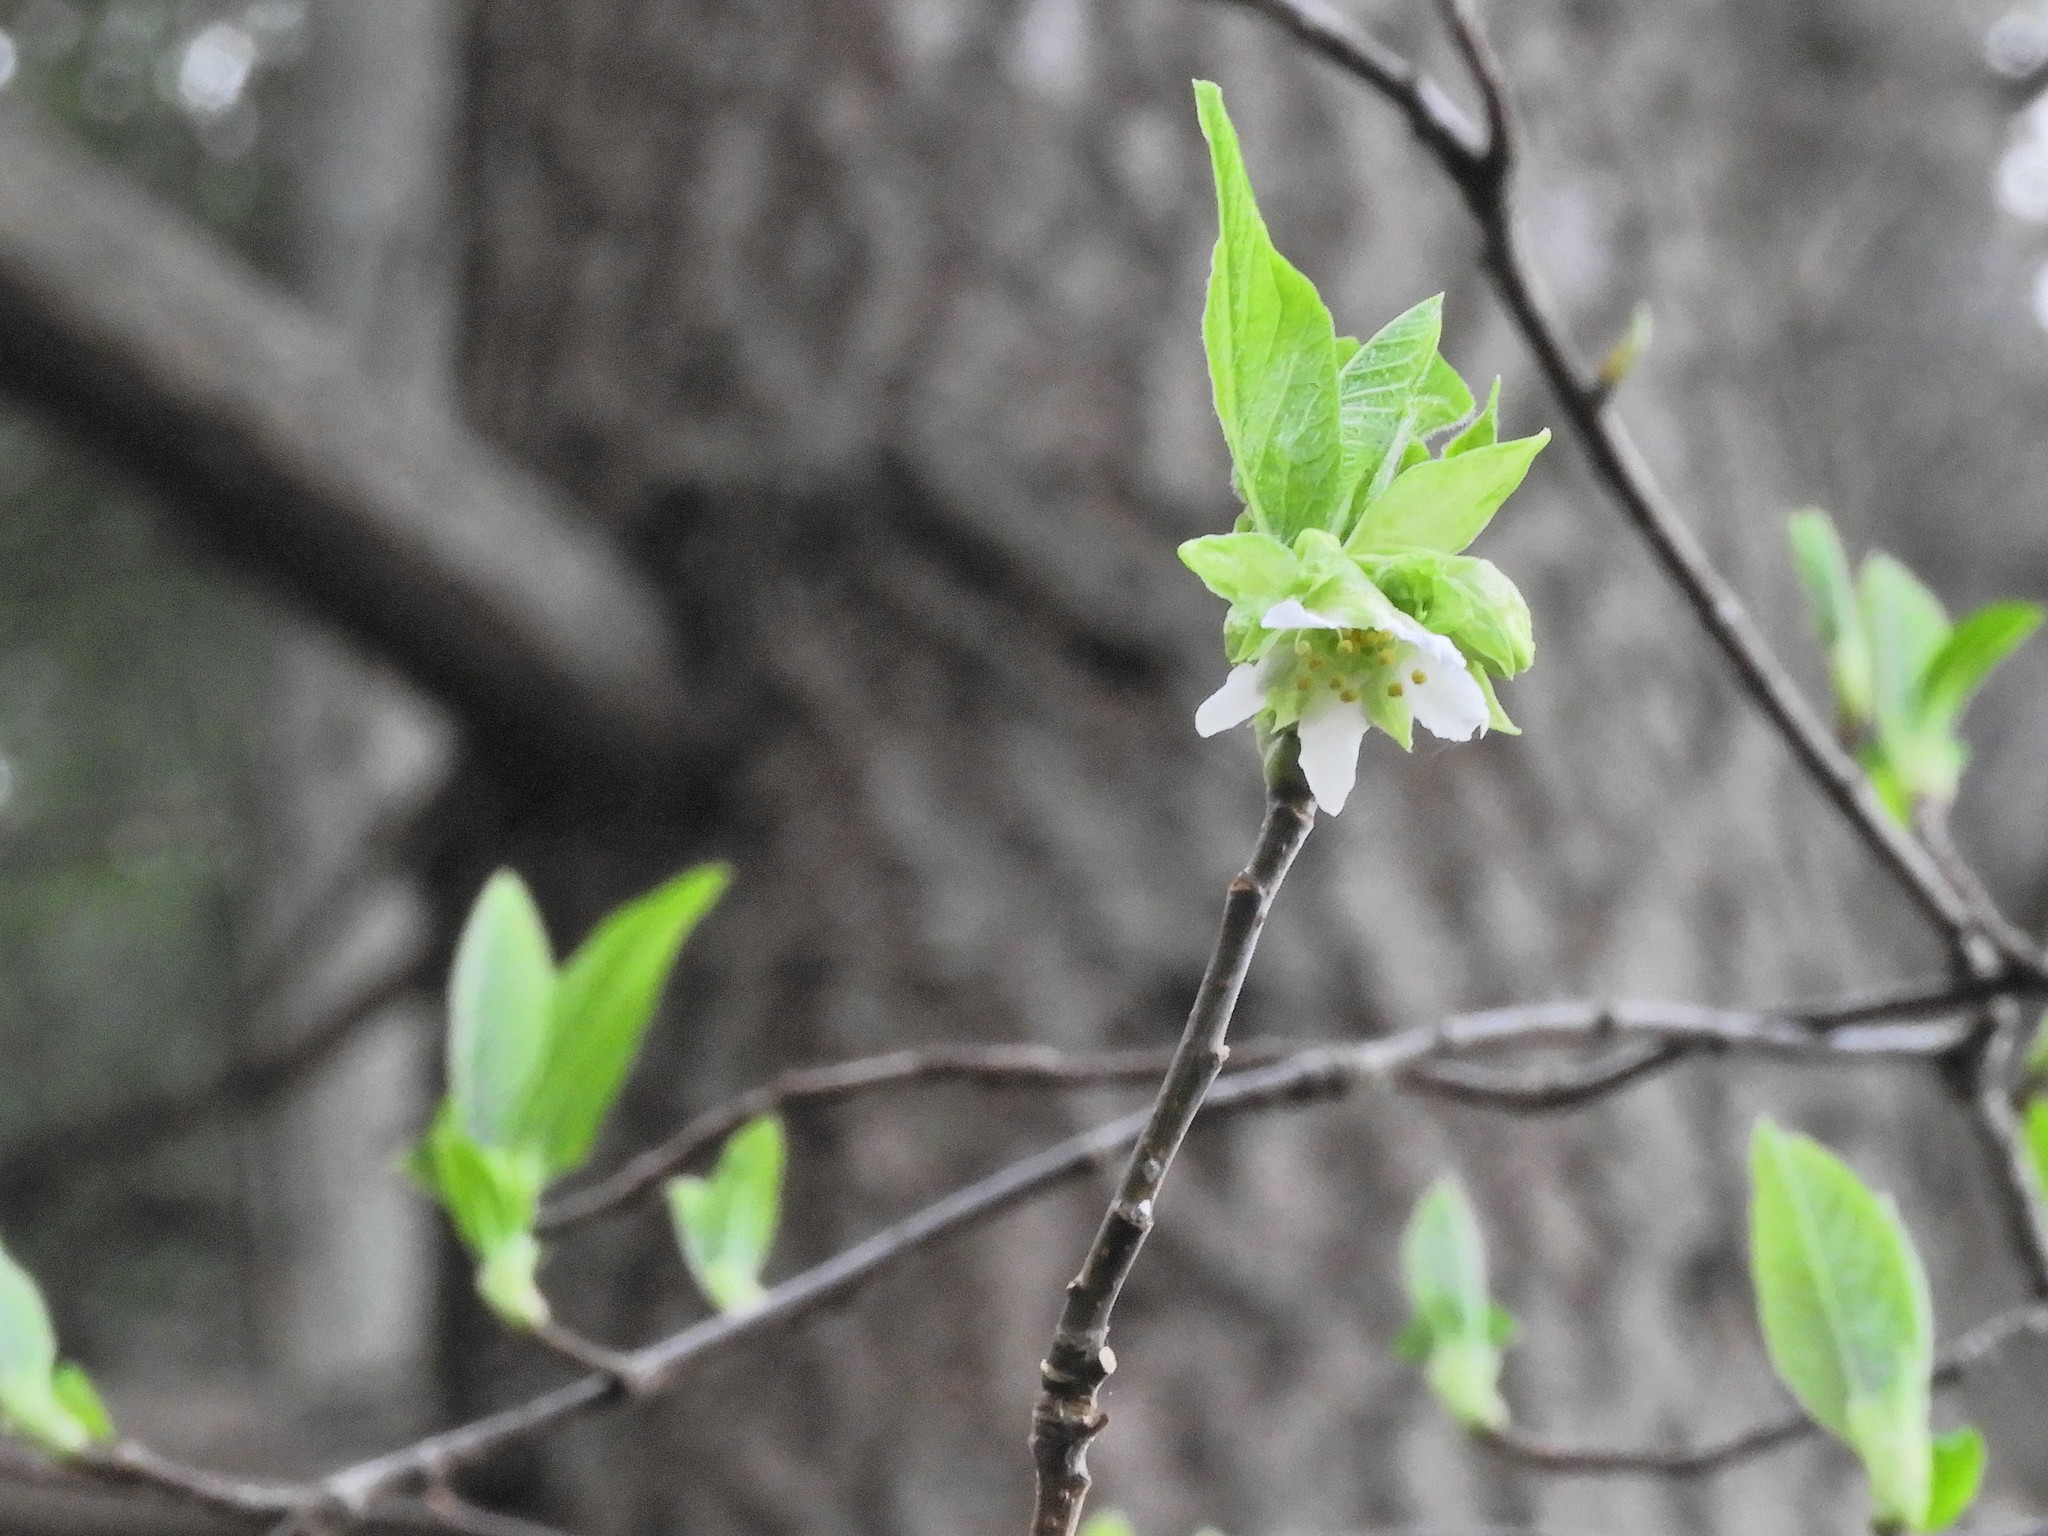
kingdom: Plantae
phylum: Tracheophyta
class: Magnoliopsida
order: Rosales
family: Rosaceae
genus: Oemleria
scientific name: Oemleria cerasiformis
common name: Osoberry
